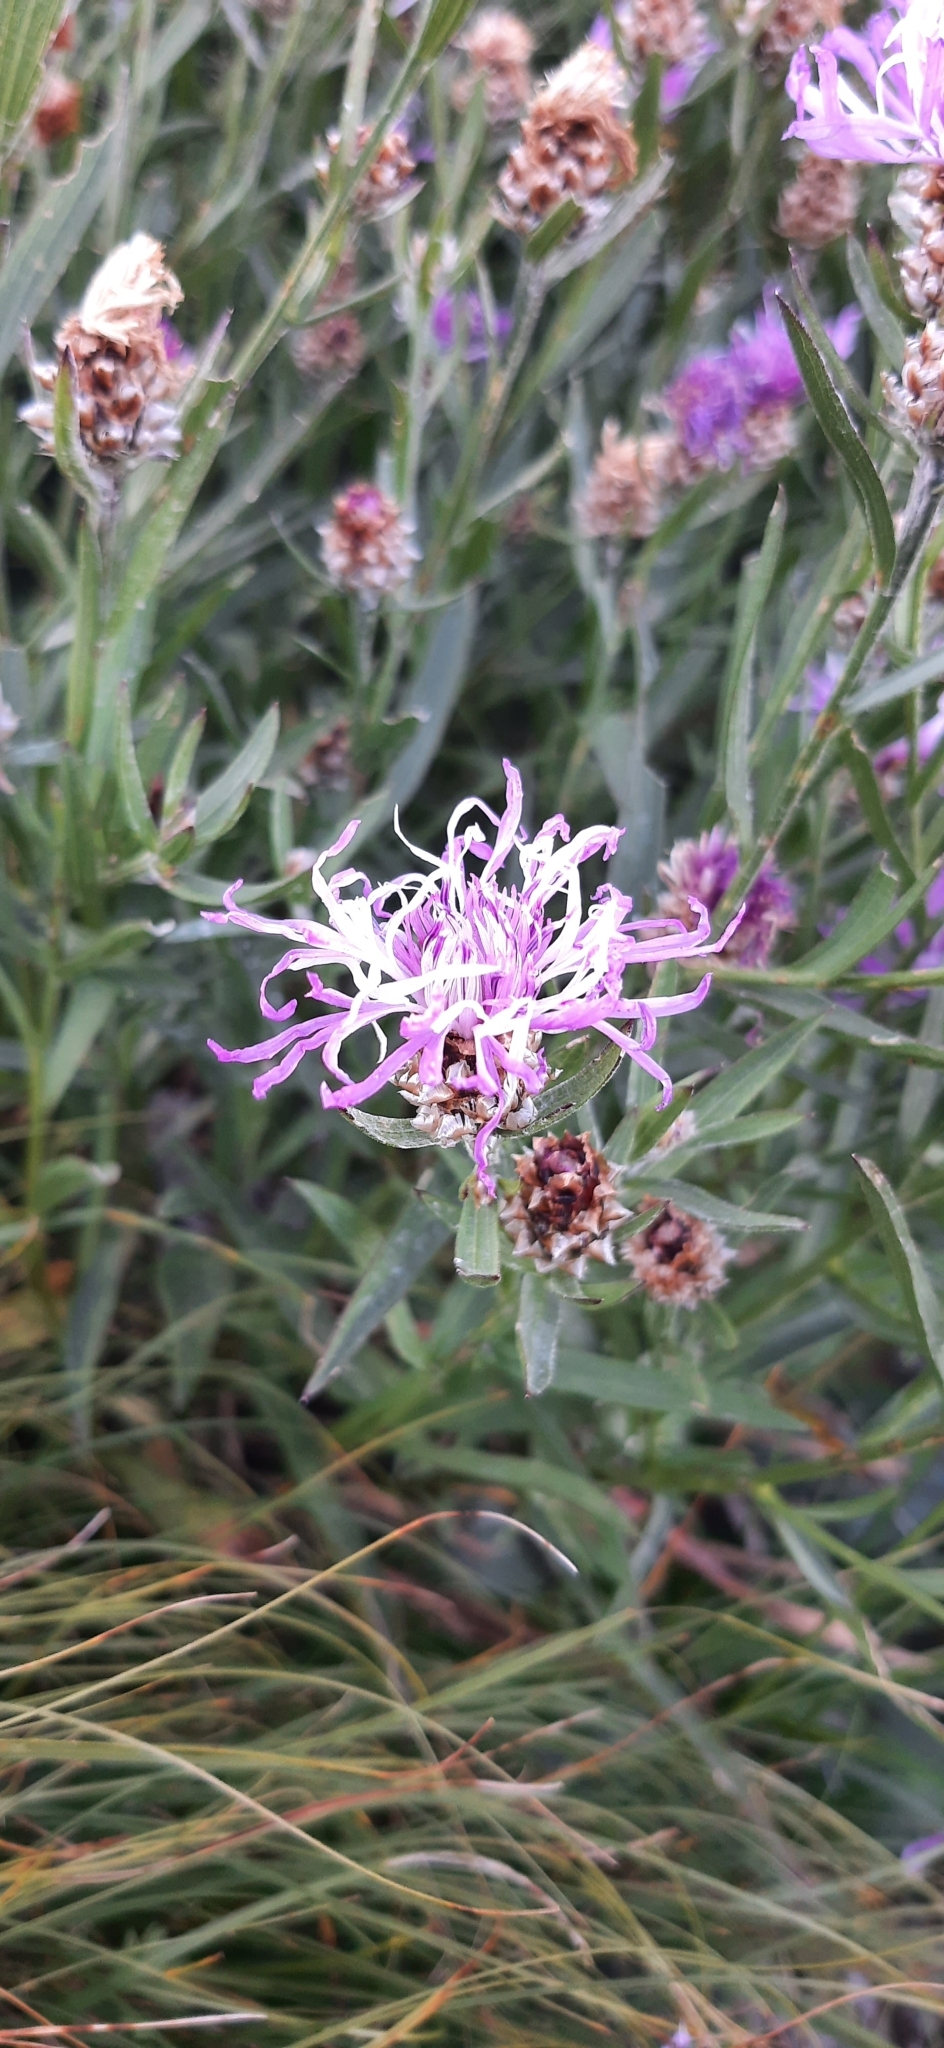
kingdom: Plantae
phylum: Tracheophyta
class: Magnoliopsida
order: Asterales
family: Asteraceae
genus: Centaurea
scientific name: Centaurea jacea
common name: Brown knapweed
